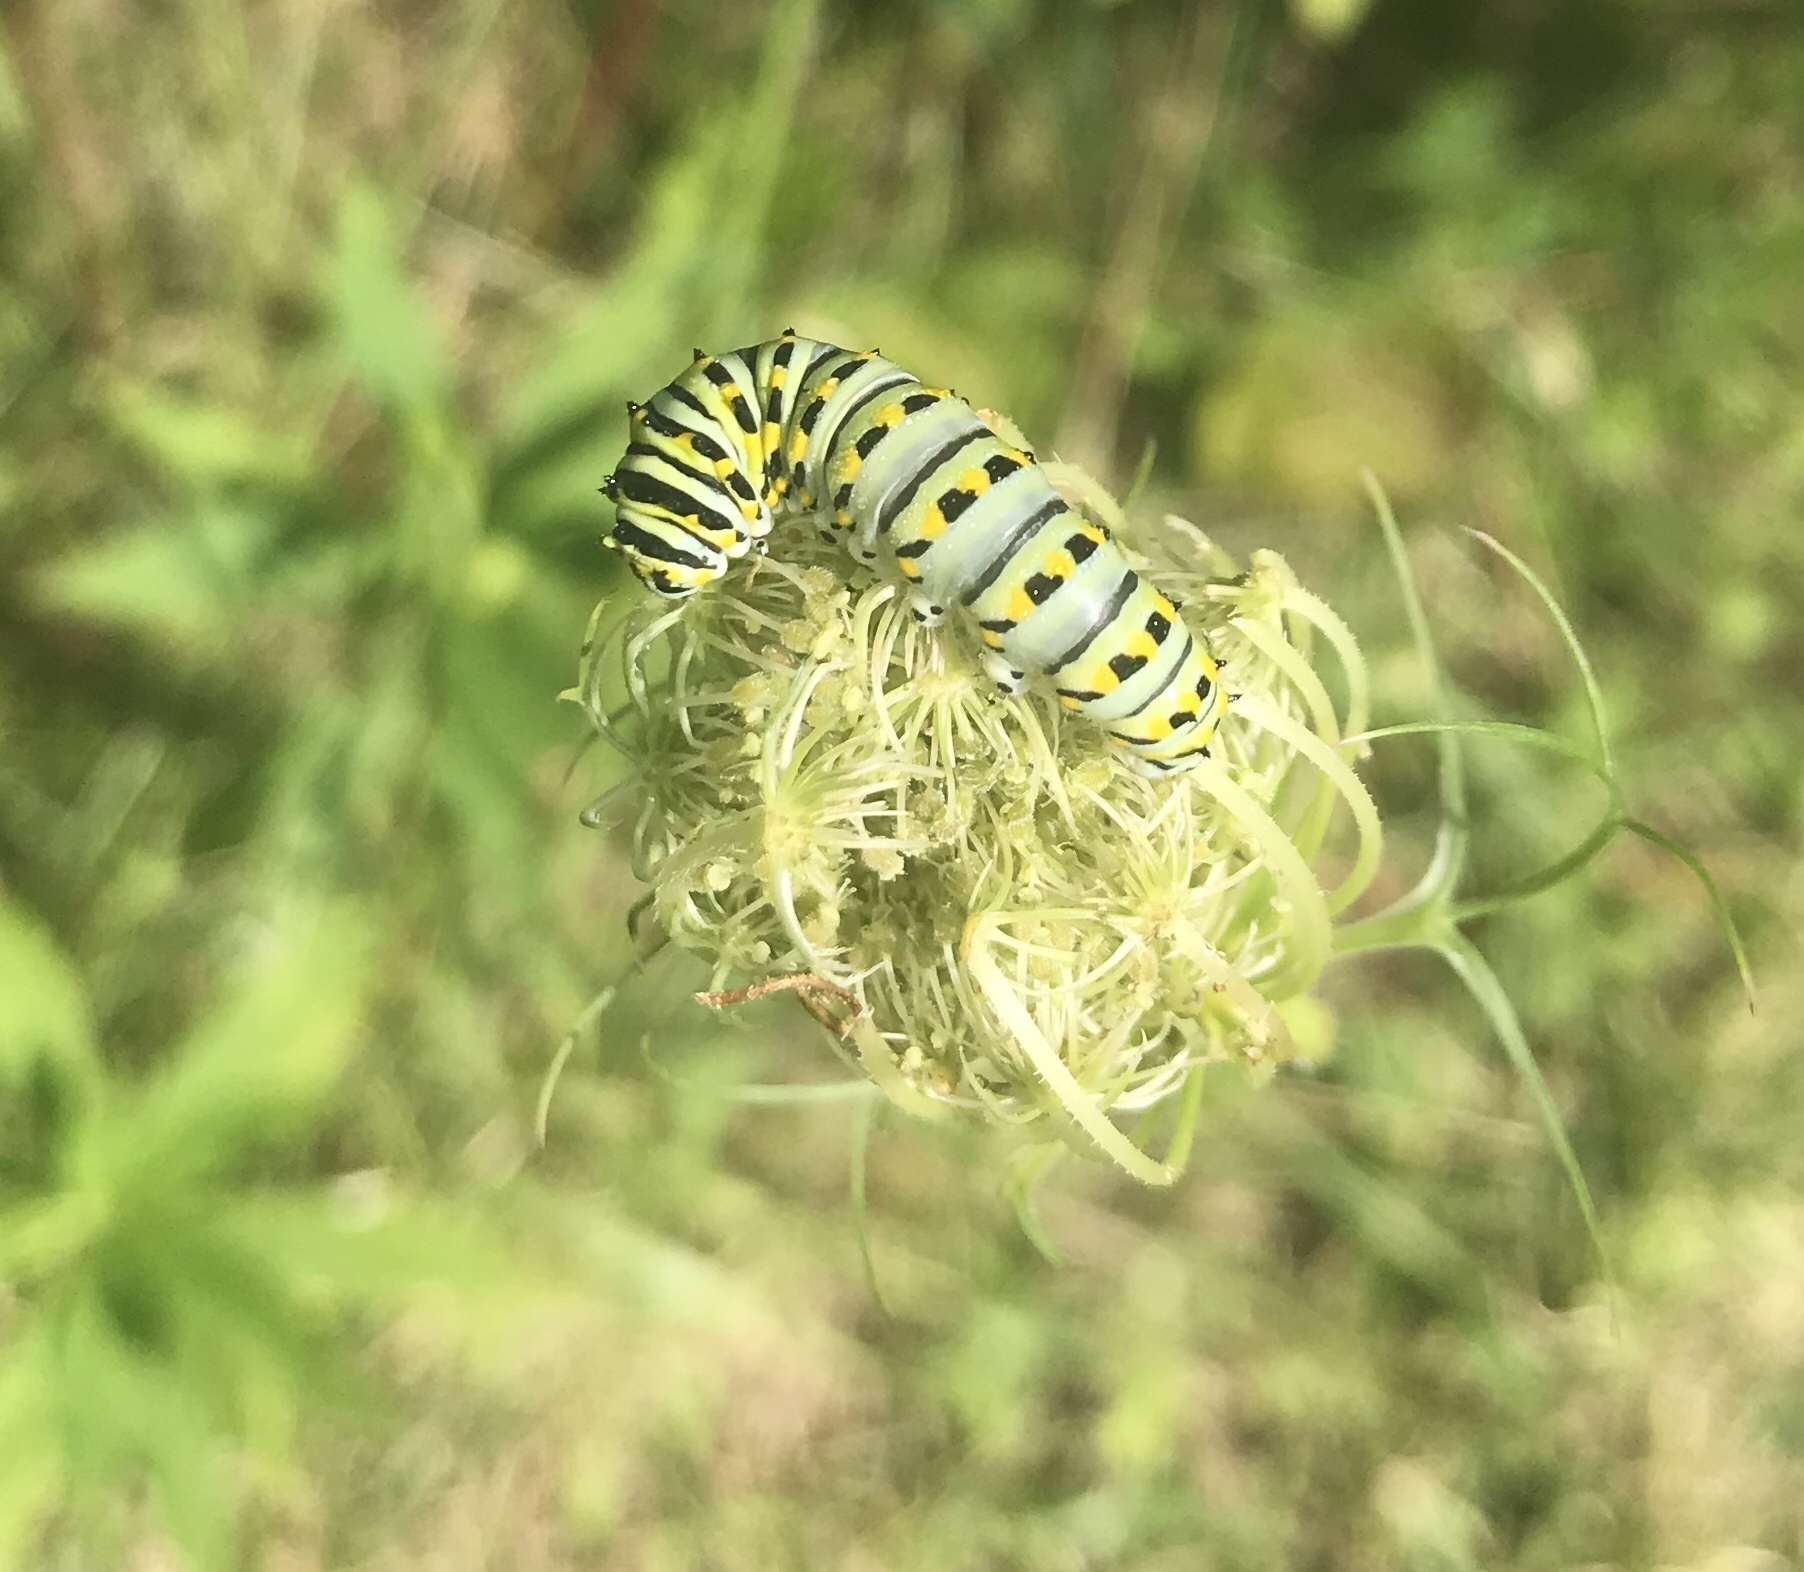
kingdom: Animalia
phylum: Arthropoda
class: Insecta
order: Lepidoptera
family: Papilionidae
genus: Papilio
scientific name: Papilio polyxenes
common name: Black swallowtail
